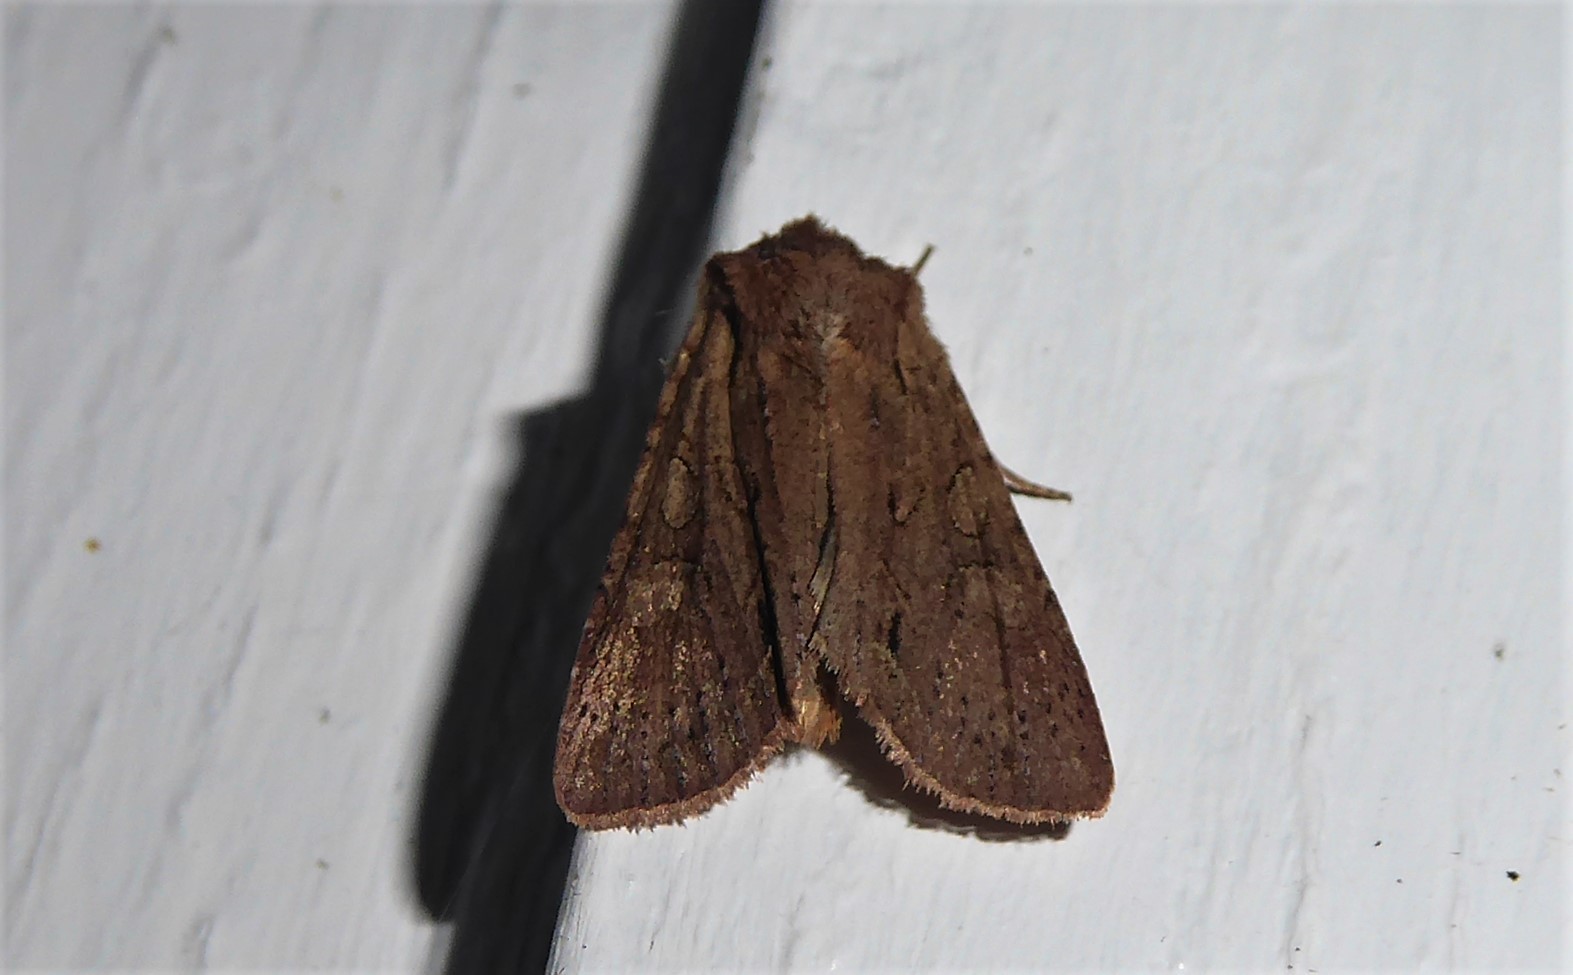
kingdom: Animalia
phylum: Arthropoda
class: Insecta
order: Lepidoptera
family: Noctuidae
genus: Ichneutica
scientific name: Ichneutica
